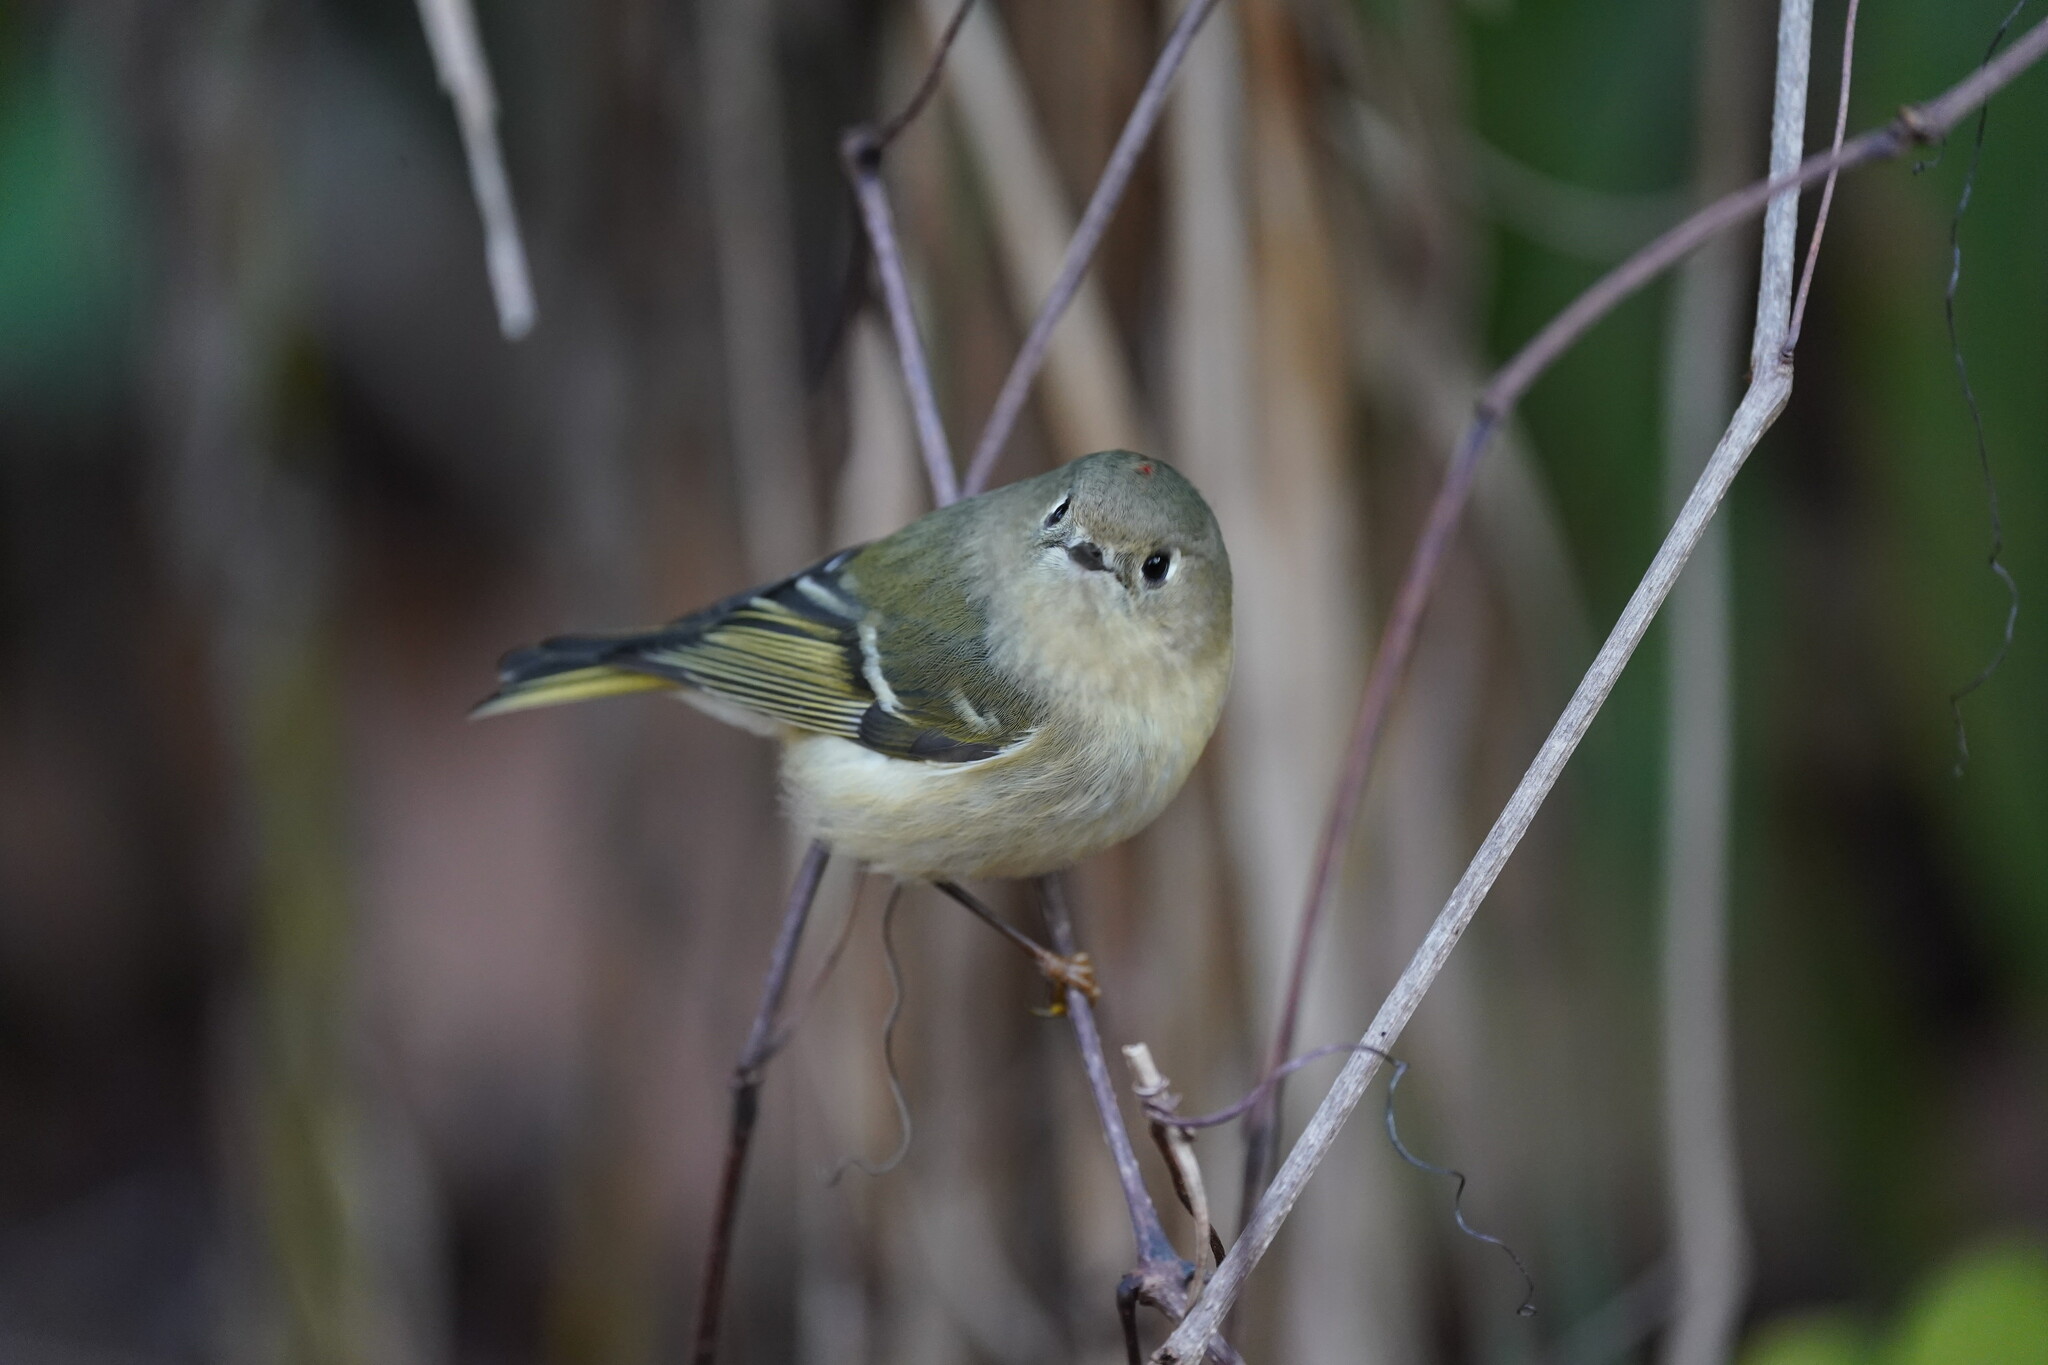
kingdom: Animalia
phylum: Chordata
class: Aves
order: Passeriformes
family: Regulidae
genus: Regulus
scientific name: Regulus calendula
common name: Ruby-crowned kinglet
